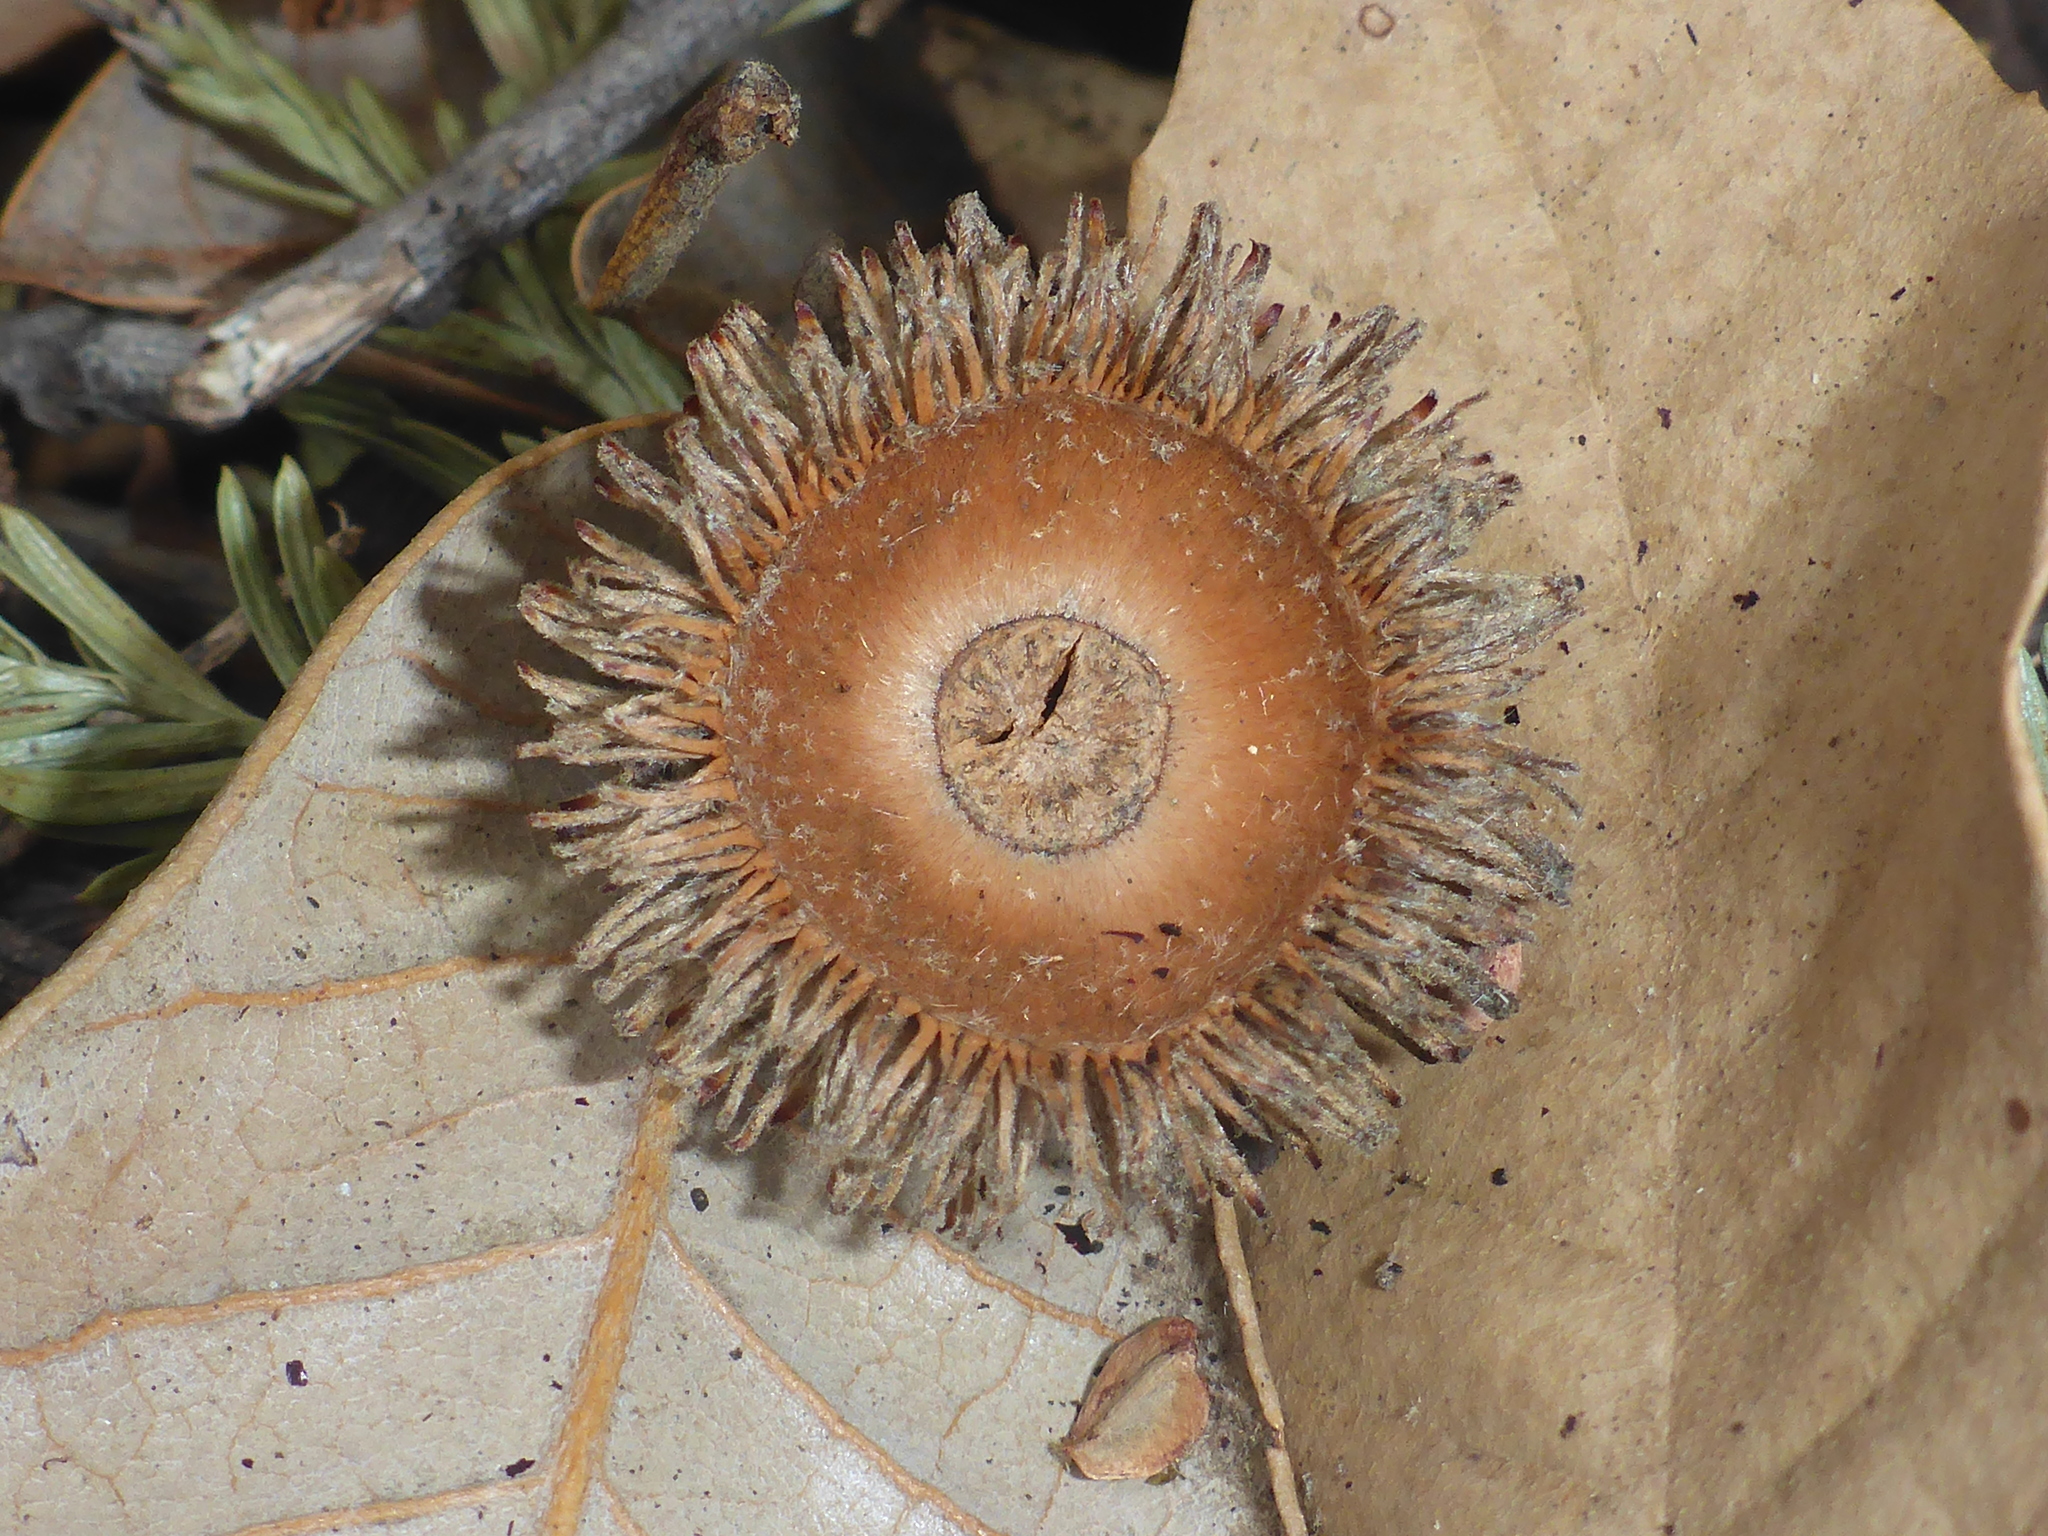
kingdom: Plantae
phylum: Tracheophyta
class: Magnoliopsida
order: Fagales
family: Fagaceae
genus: Notholithocarpus
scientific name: Notholithocarpus densiflorus
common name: Tan bark oak
